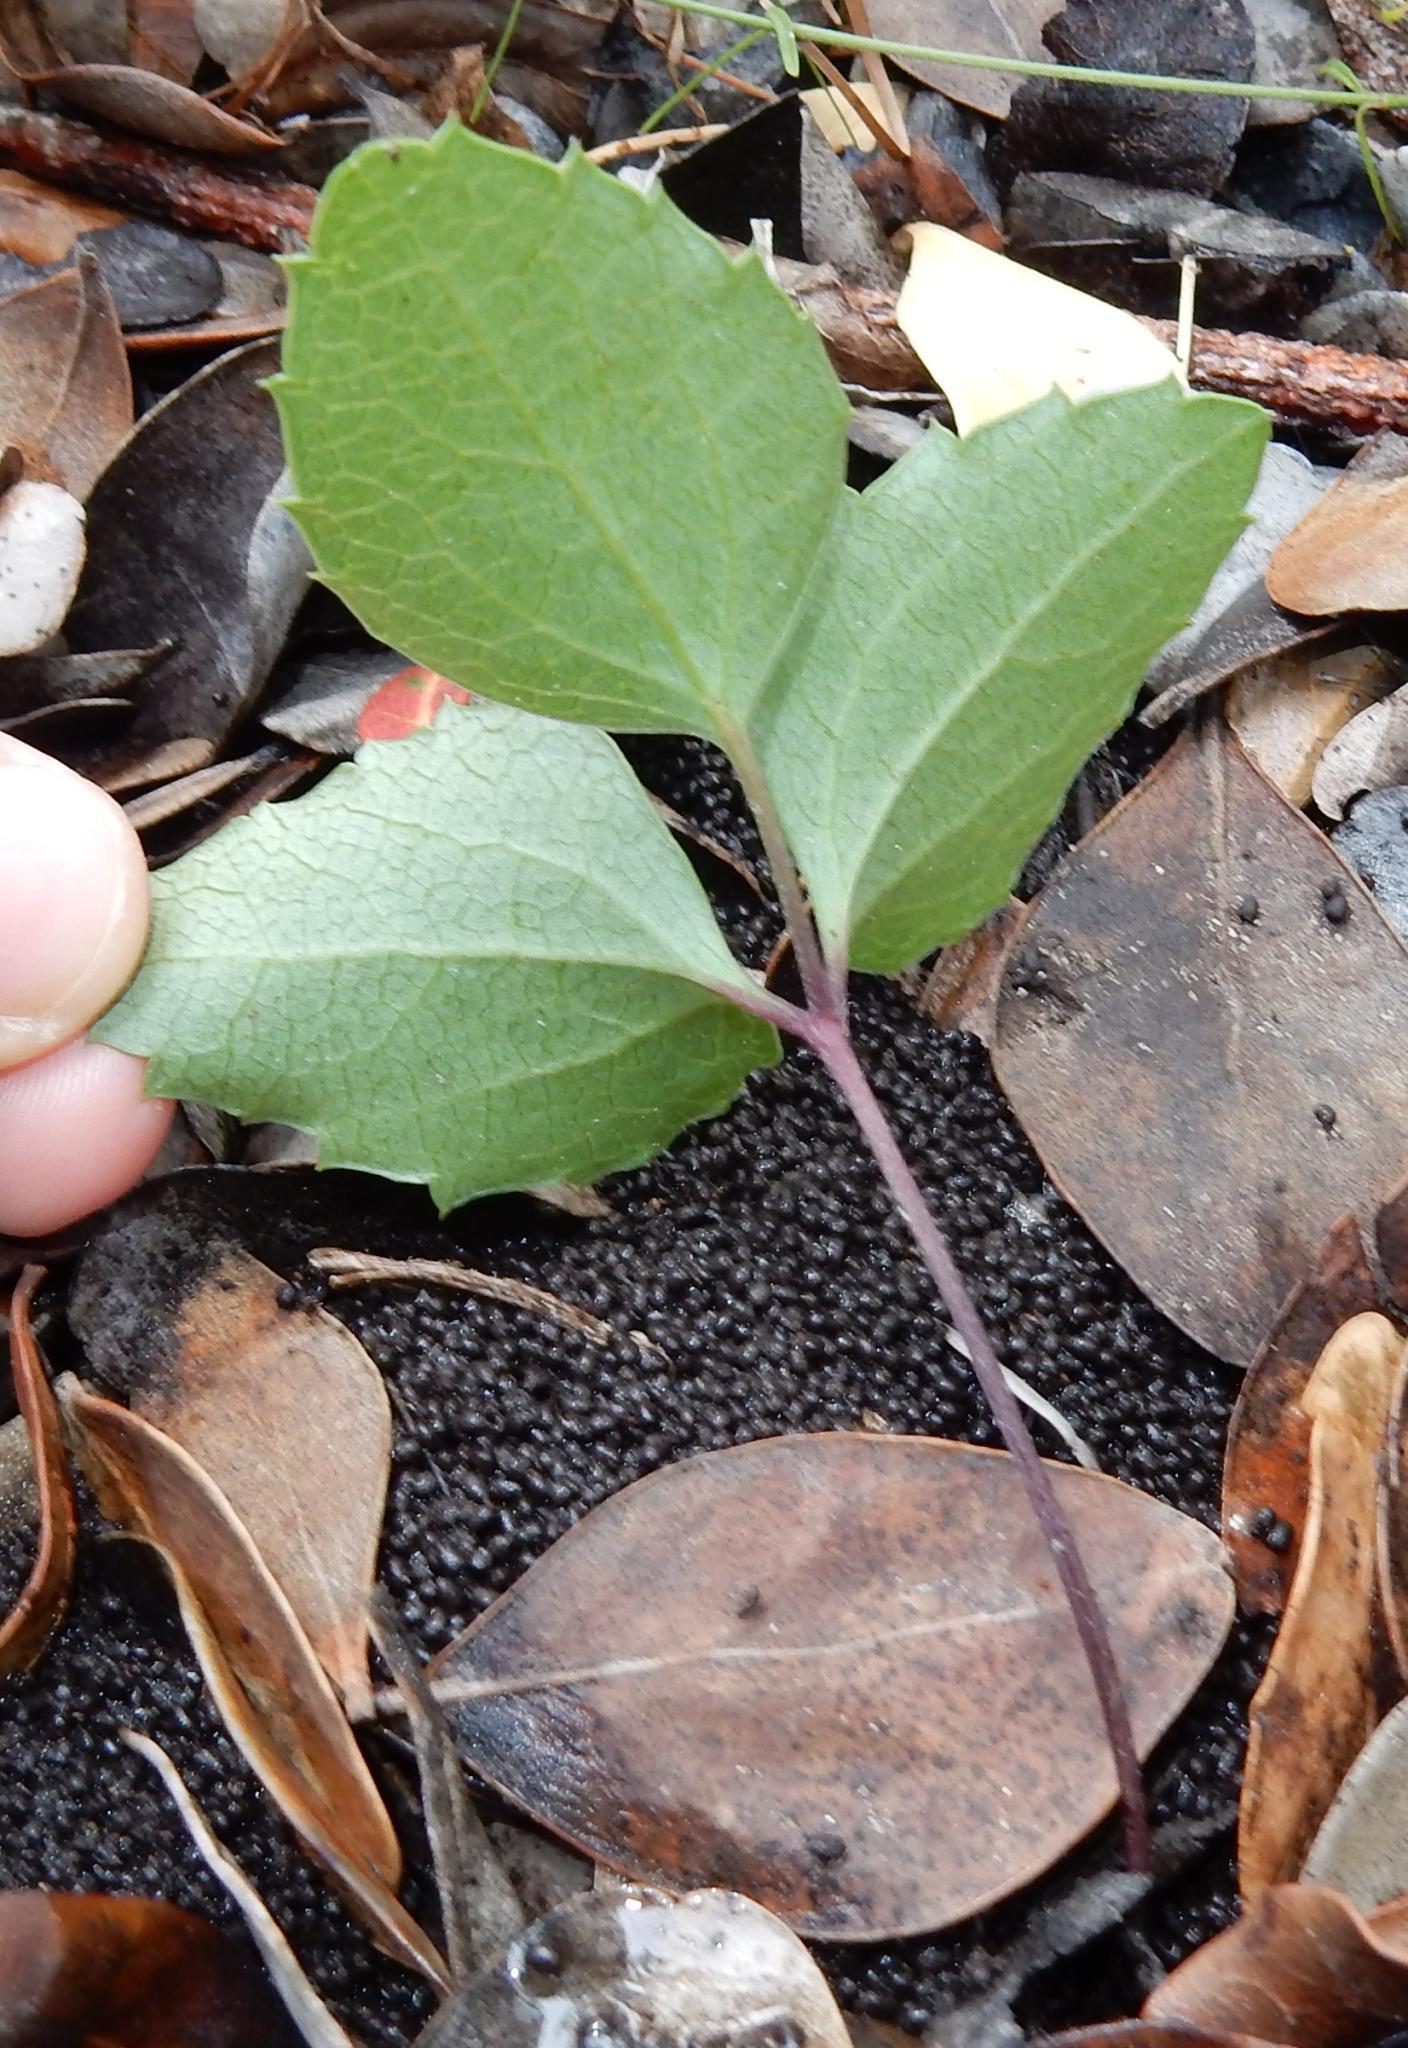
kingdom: Plantae
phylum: Tracheophyta
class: Magnoliopsida
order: Ranunculales
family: Ranunculaceae
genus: Knowltonia
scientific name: Knowltonia vesicatoria
